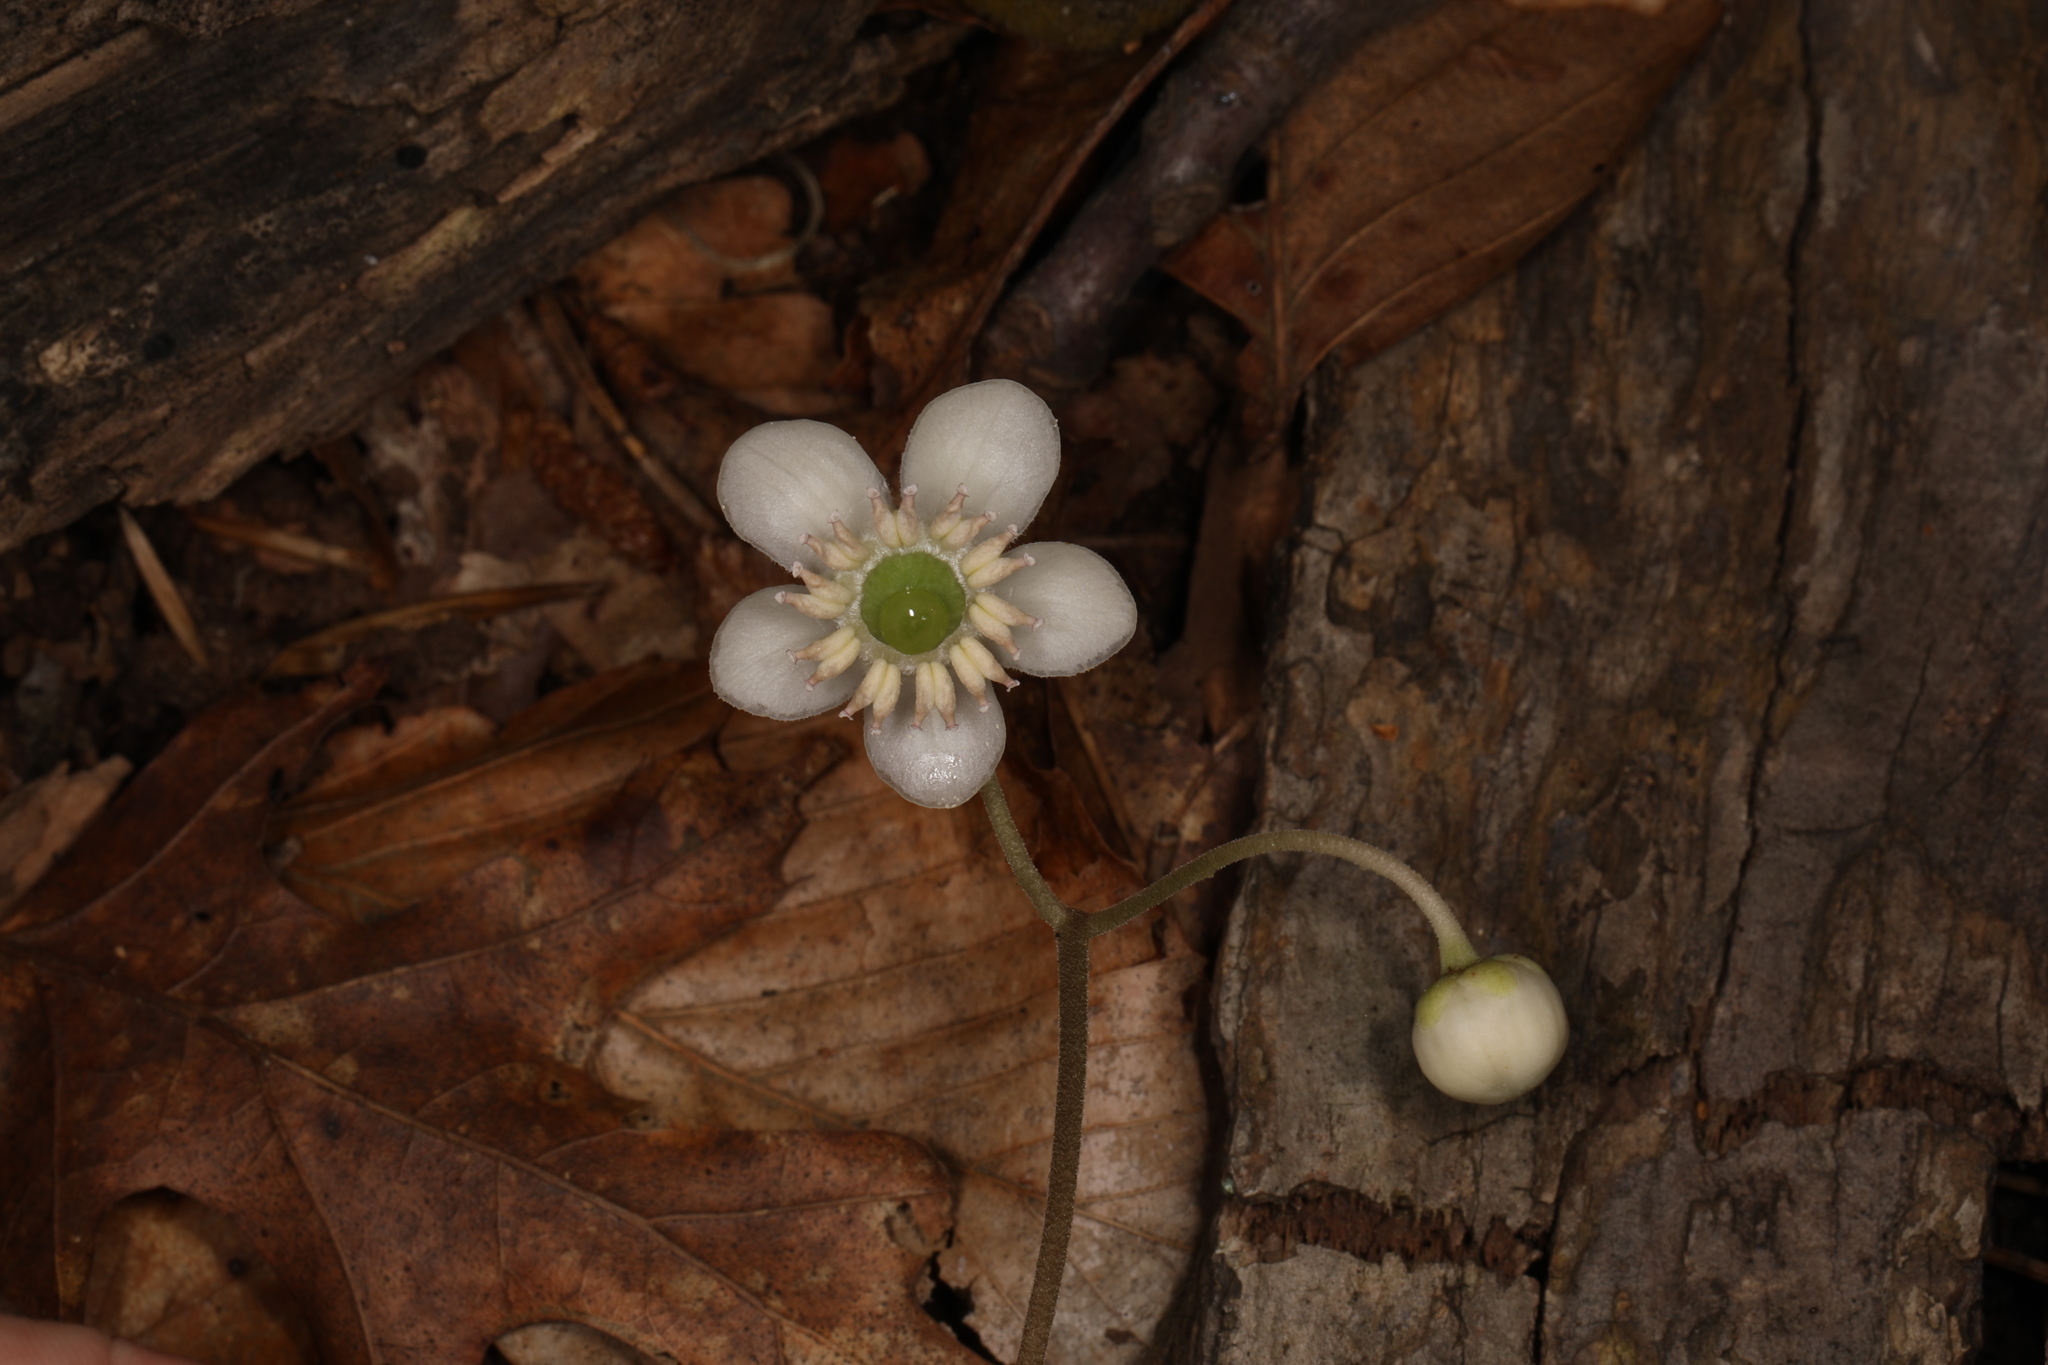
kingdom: Plantae
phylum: Tracheophyta
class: Magnoliopsida
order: Ericales
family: Ericaceae
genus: Chimaphila
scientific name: Chimaphila maculata
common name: Spotted pipsissewa
